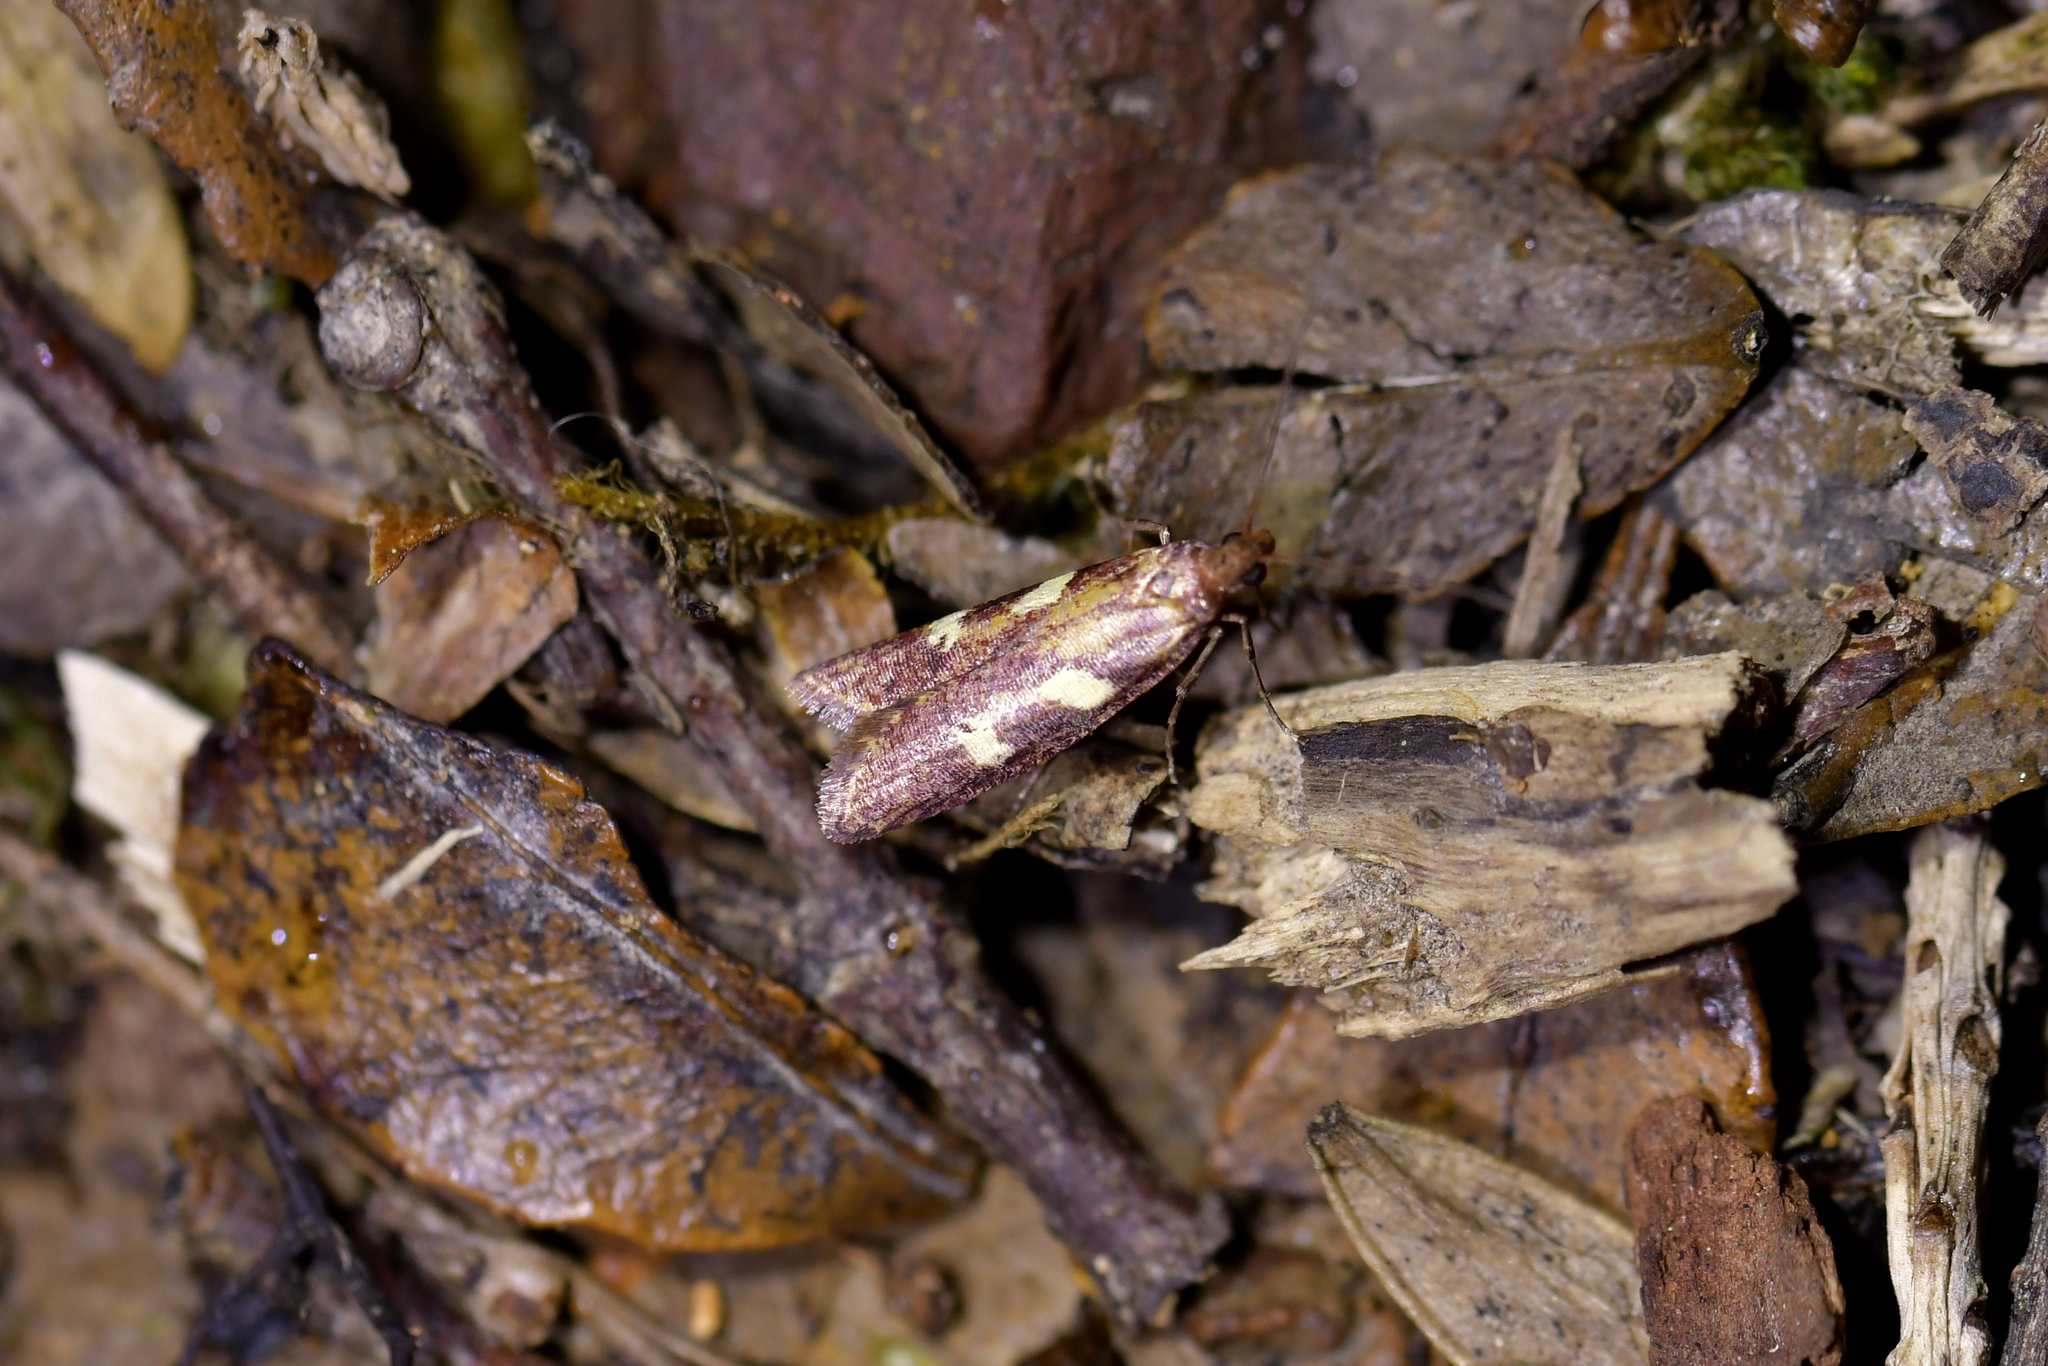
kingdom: Animalia
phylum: Arthropoda
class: Insecta
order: Lepidoptera
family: Plutellidae
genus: Cadmogenes
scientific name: Cadmogenes literata
